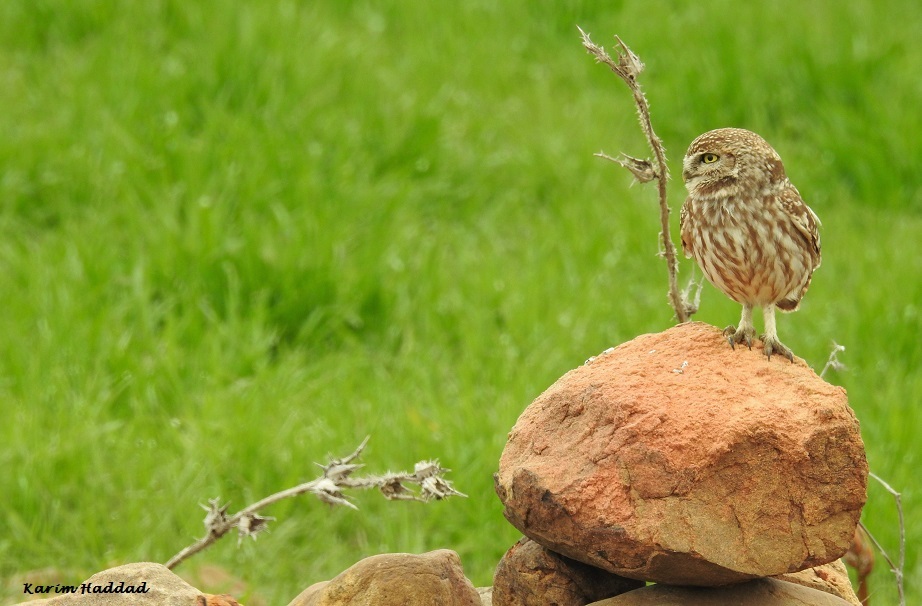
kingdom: Animalia
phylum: Chordata
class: Aves
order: Strigiformes
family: Strigidae
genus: Athene
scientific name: Athene noctua
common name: Little owl
